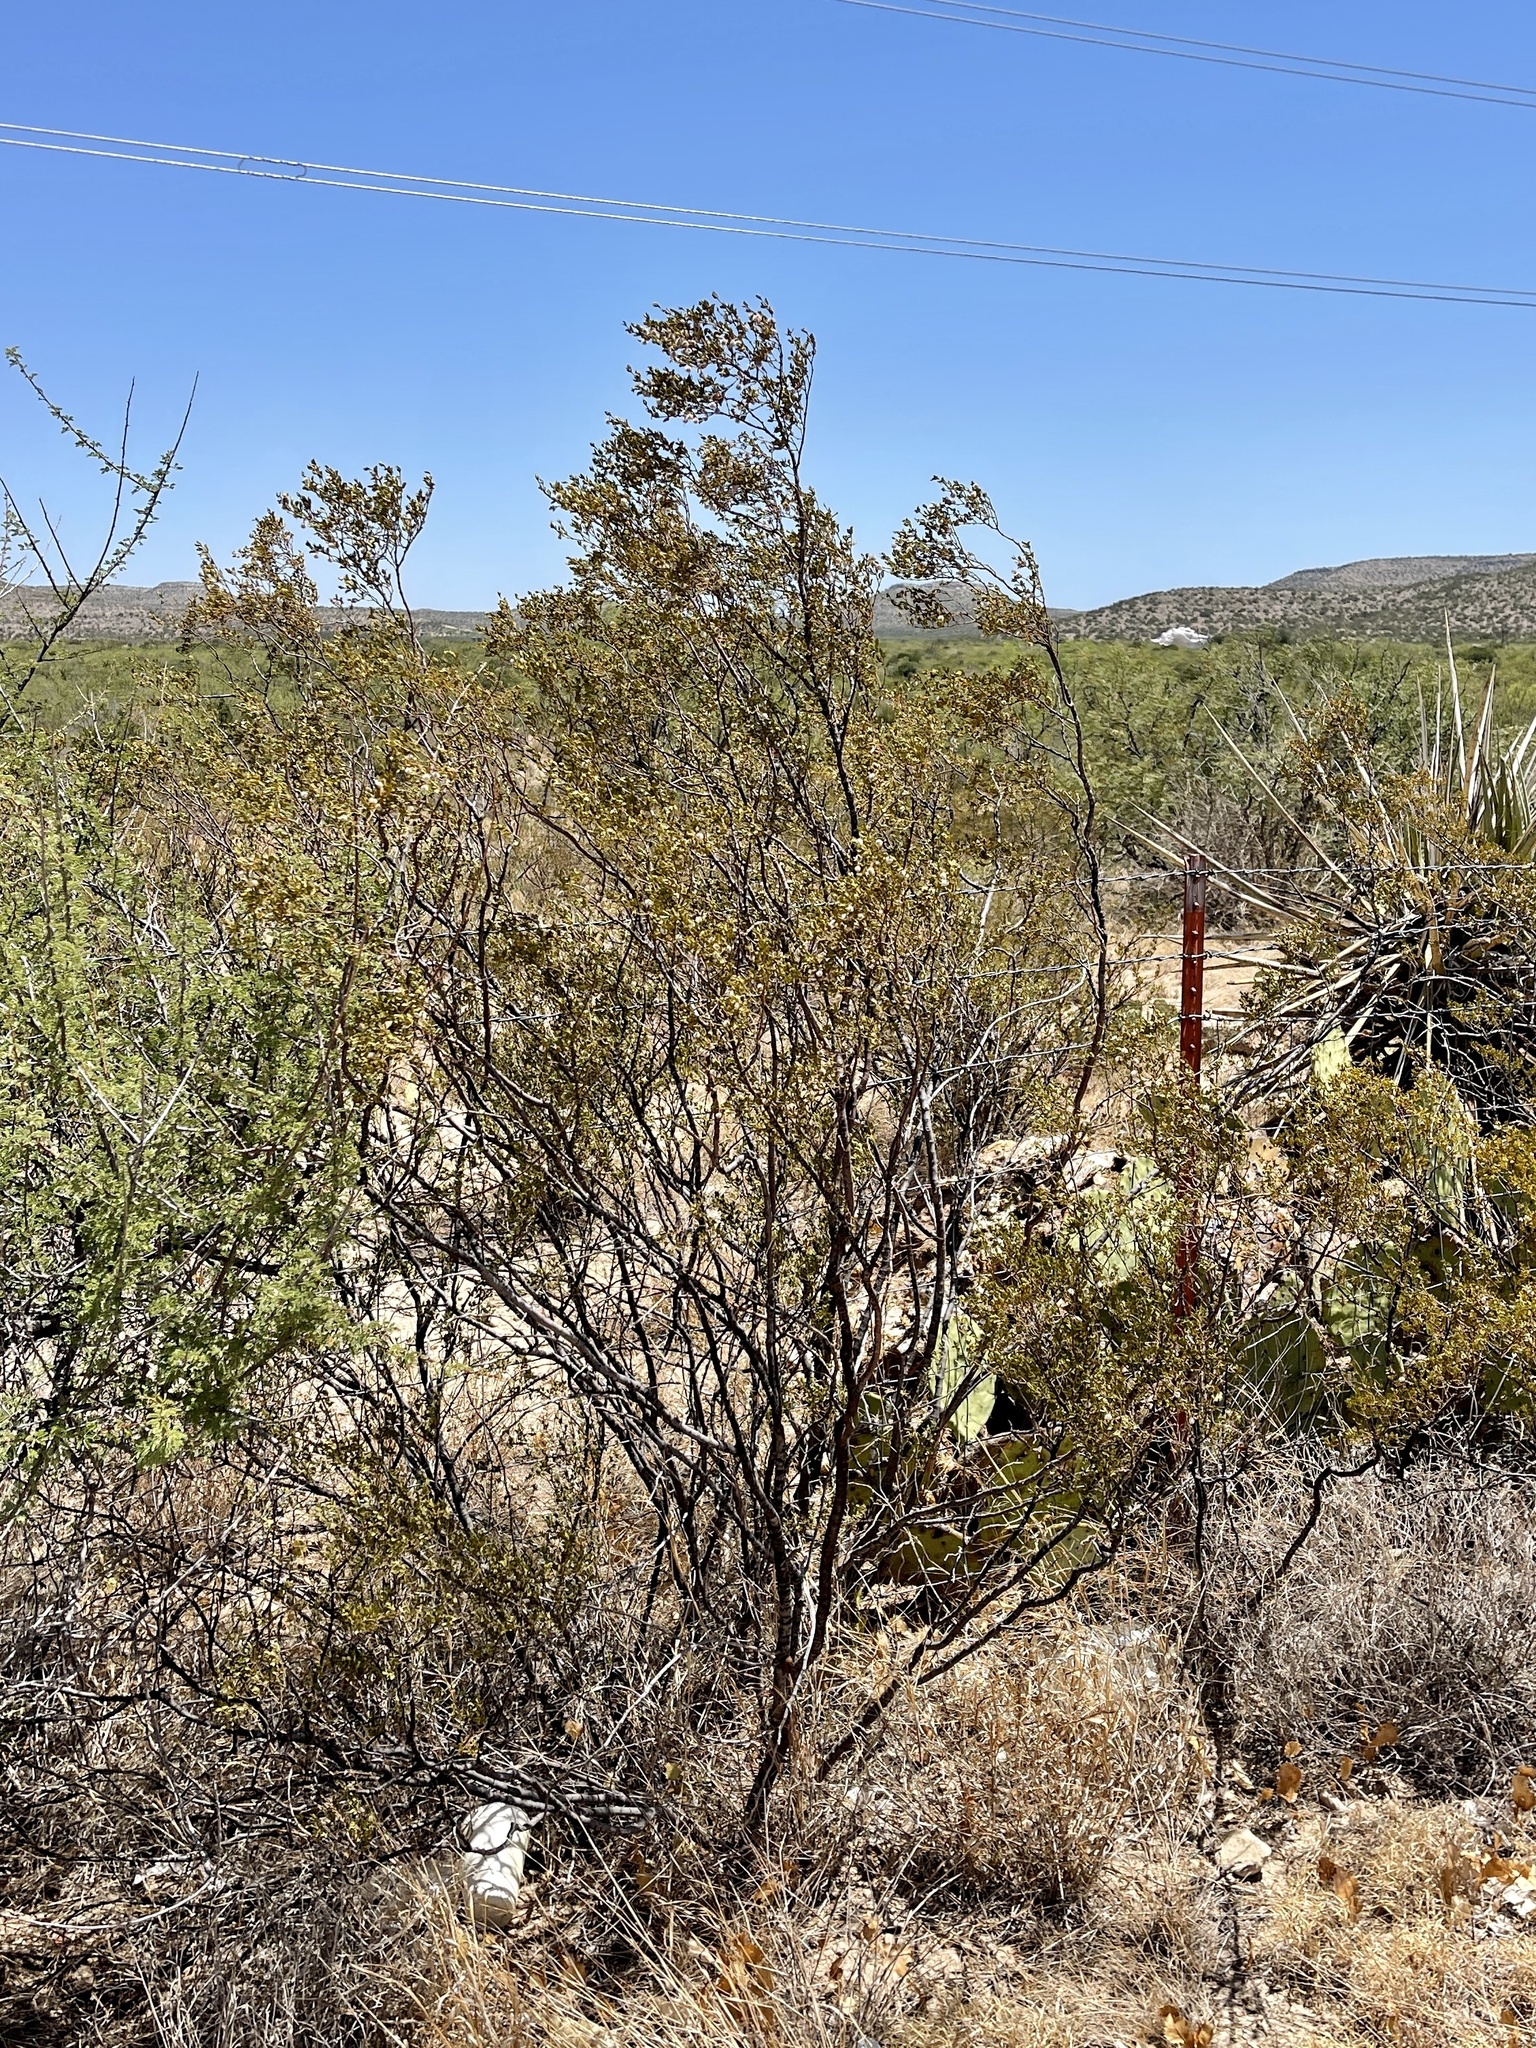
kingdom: Plantae
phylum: Tracheophyta
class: Magnoliopsida
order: Zygophyllales
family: Zygophyllaceae
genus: Larrea
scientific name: Larrea tridentata
